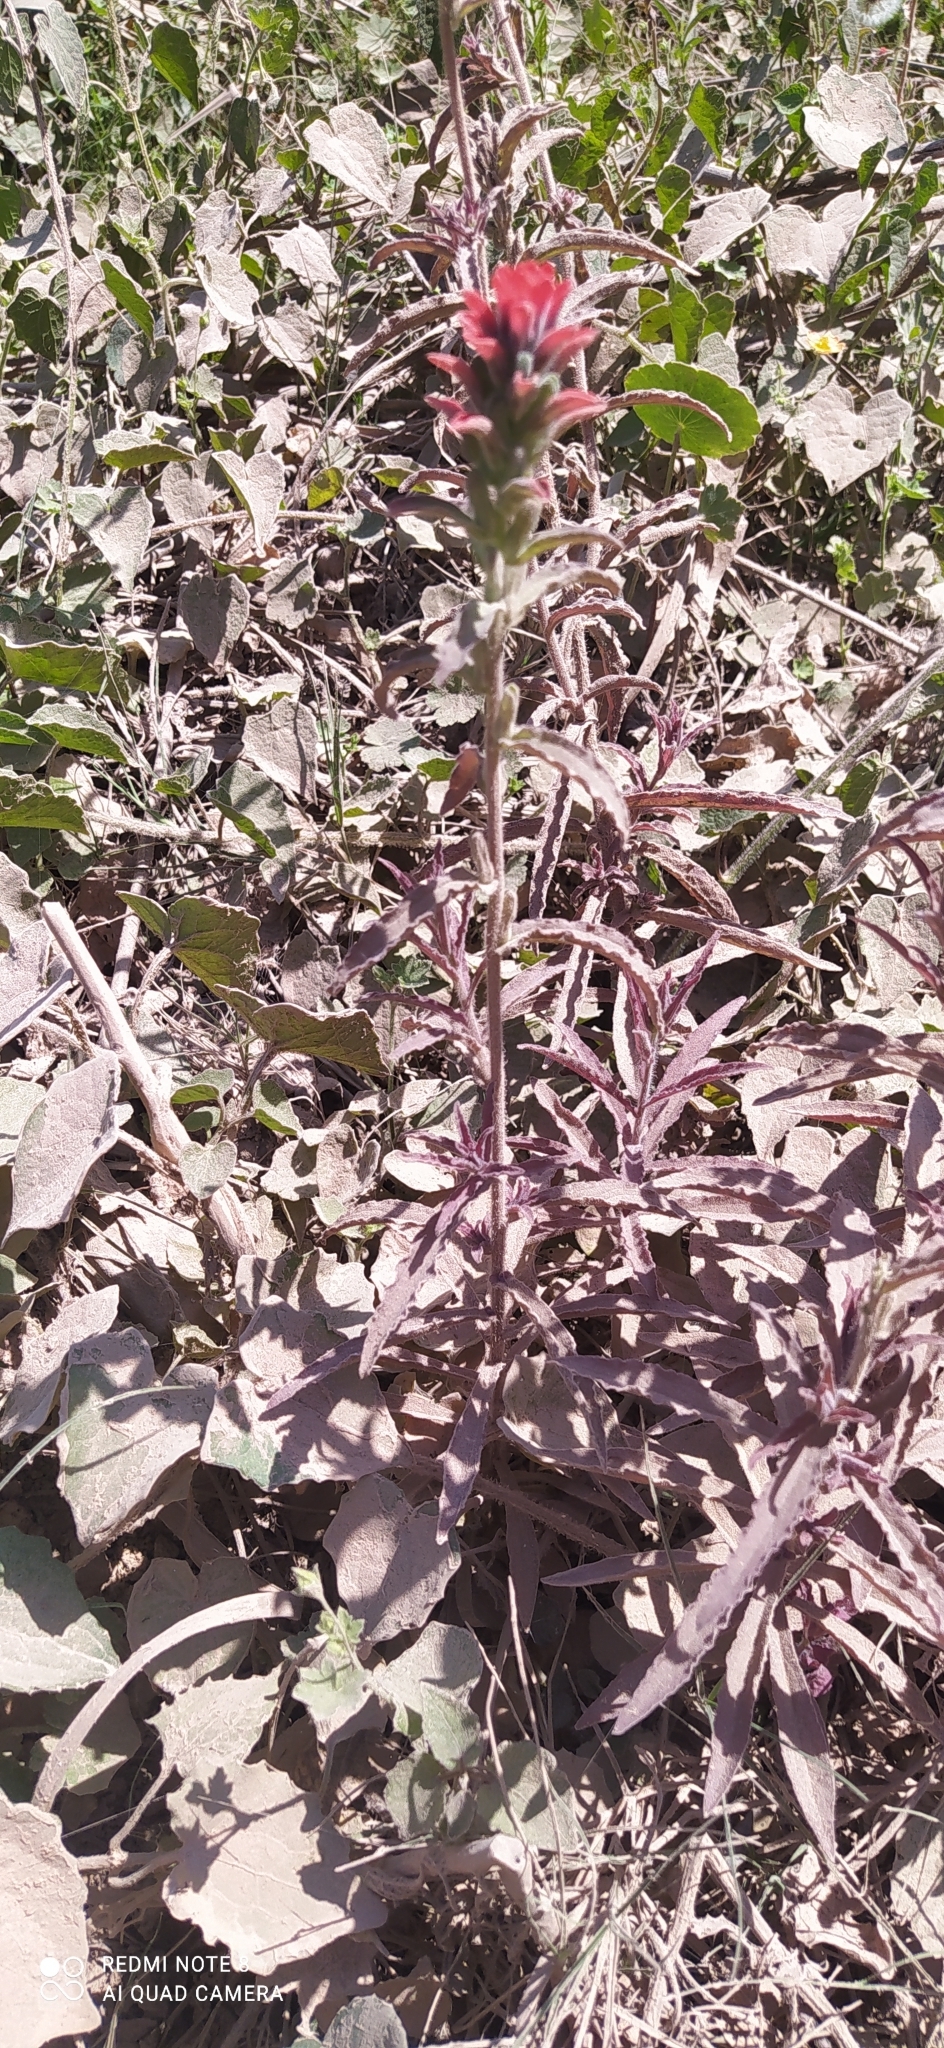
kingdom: Plantae
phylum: Tracheophyta
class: Magnoliopsida
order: Lamiales
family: Orobanchaceae
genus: Castilleja
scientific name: Castilleja arvensis
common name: Indian paintbrush
